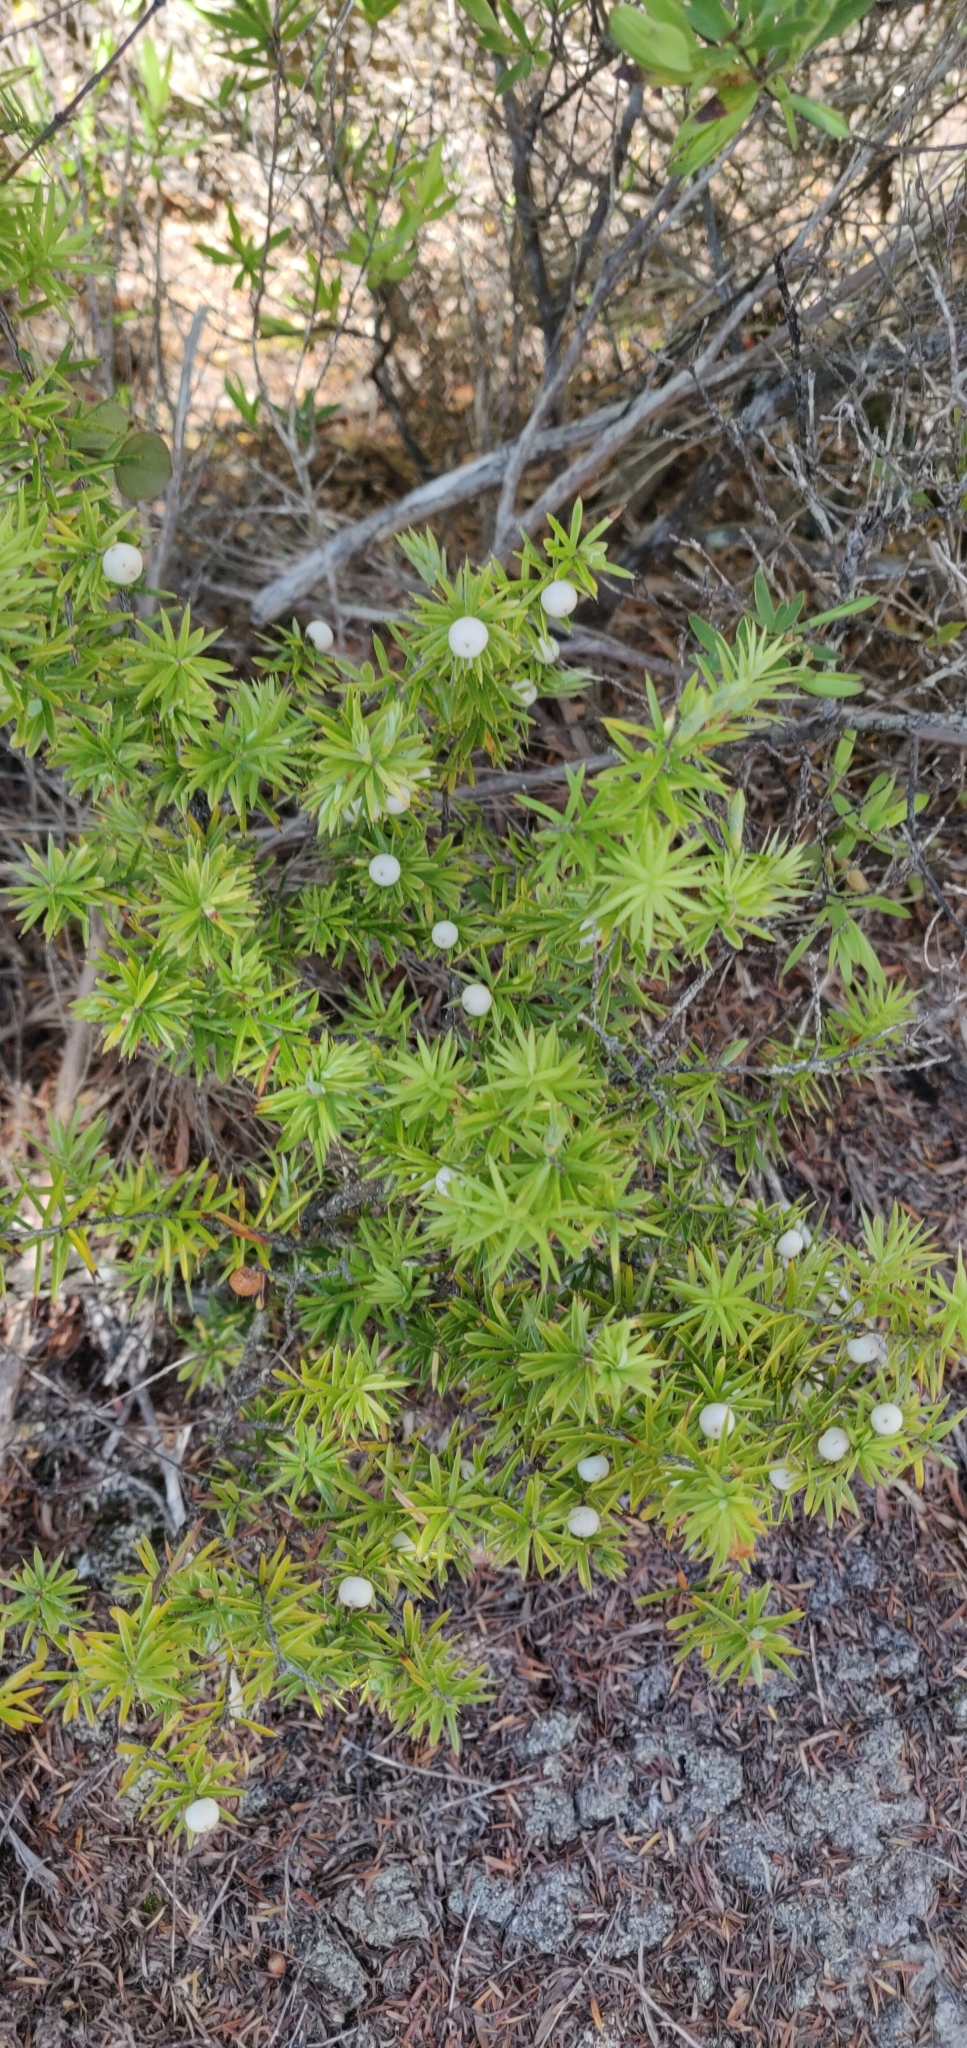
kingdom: Plantae
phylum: Tracheophyta
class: Magnoliopsida
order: Ericales
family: Ericaceae
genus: Leptecophylla
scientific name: Leptecophylla juniperina
